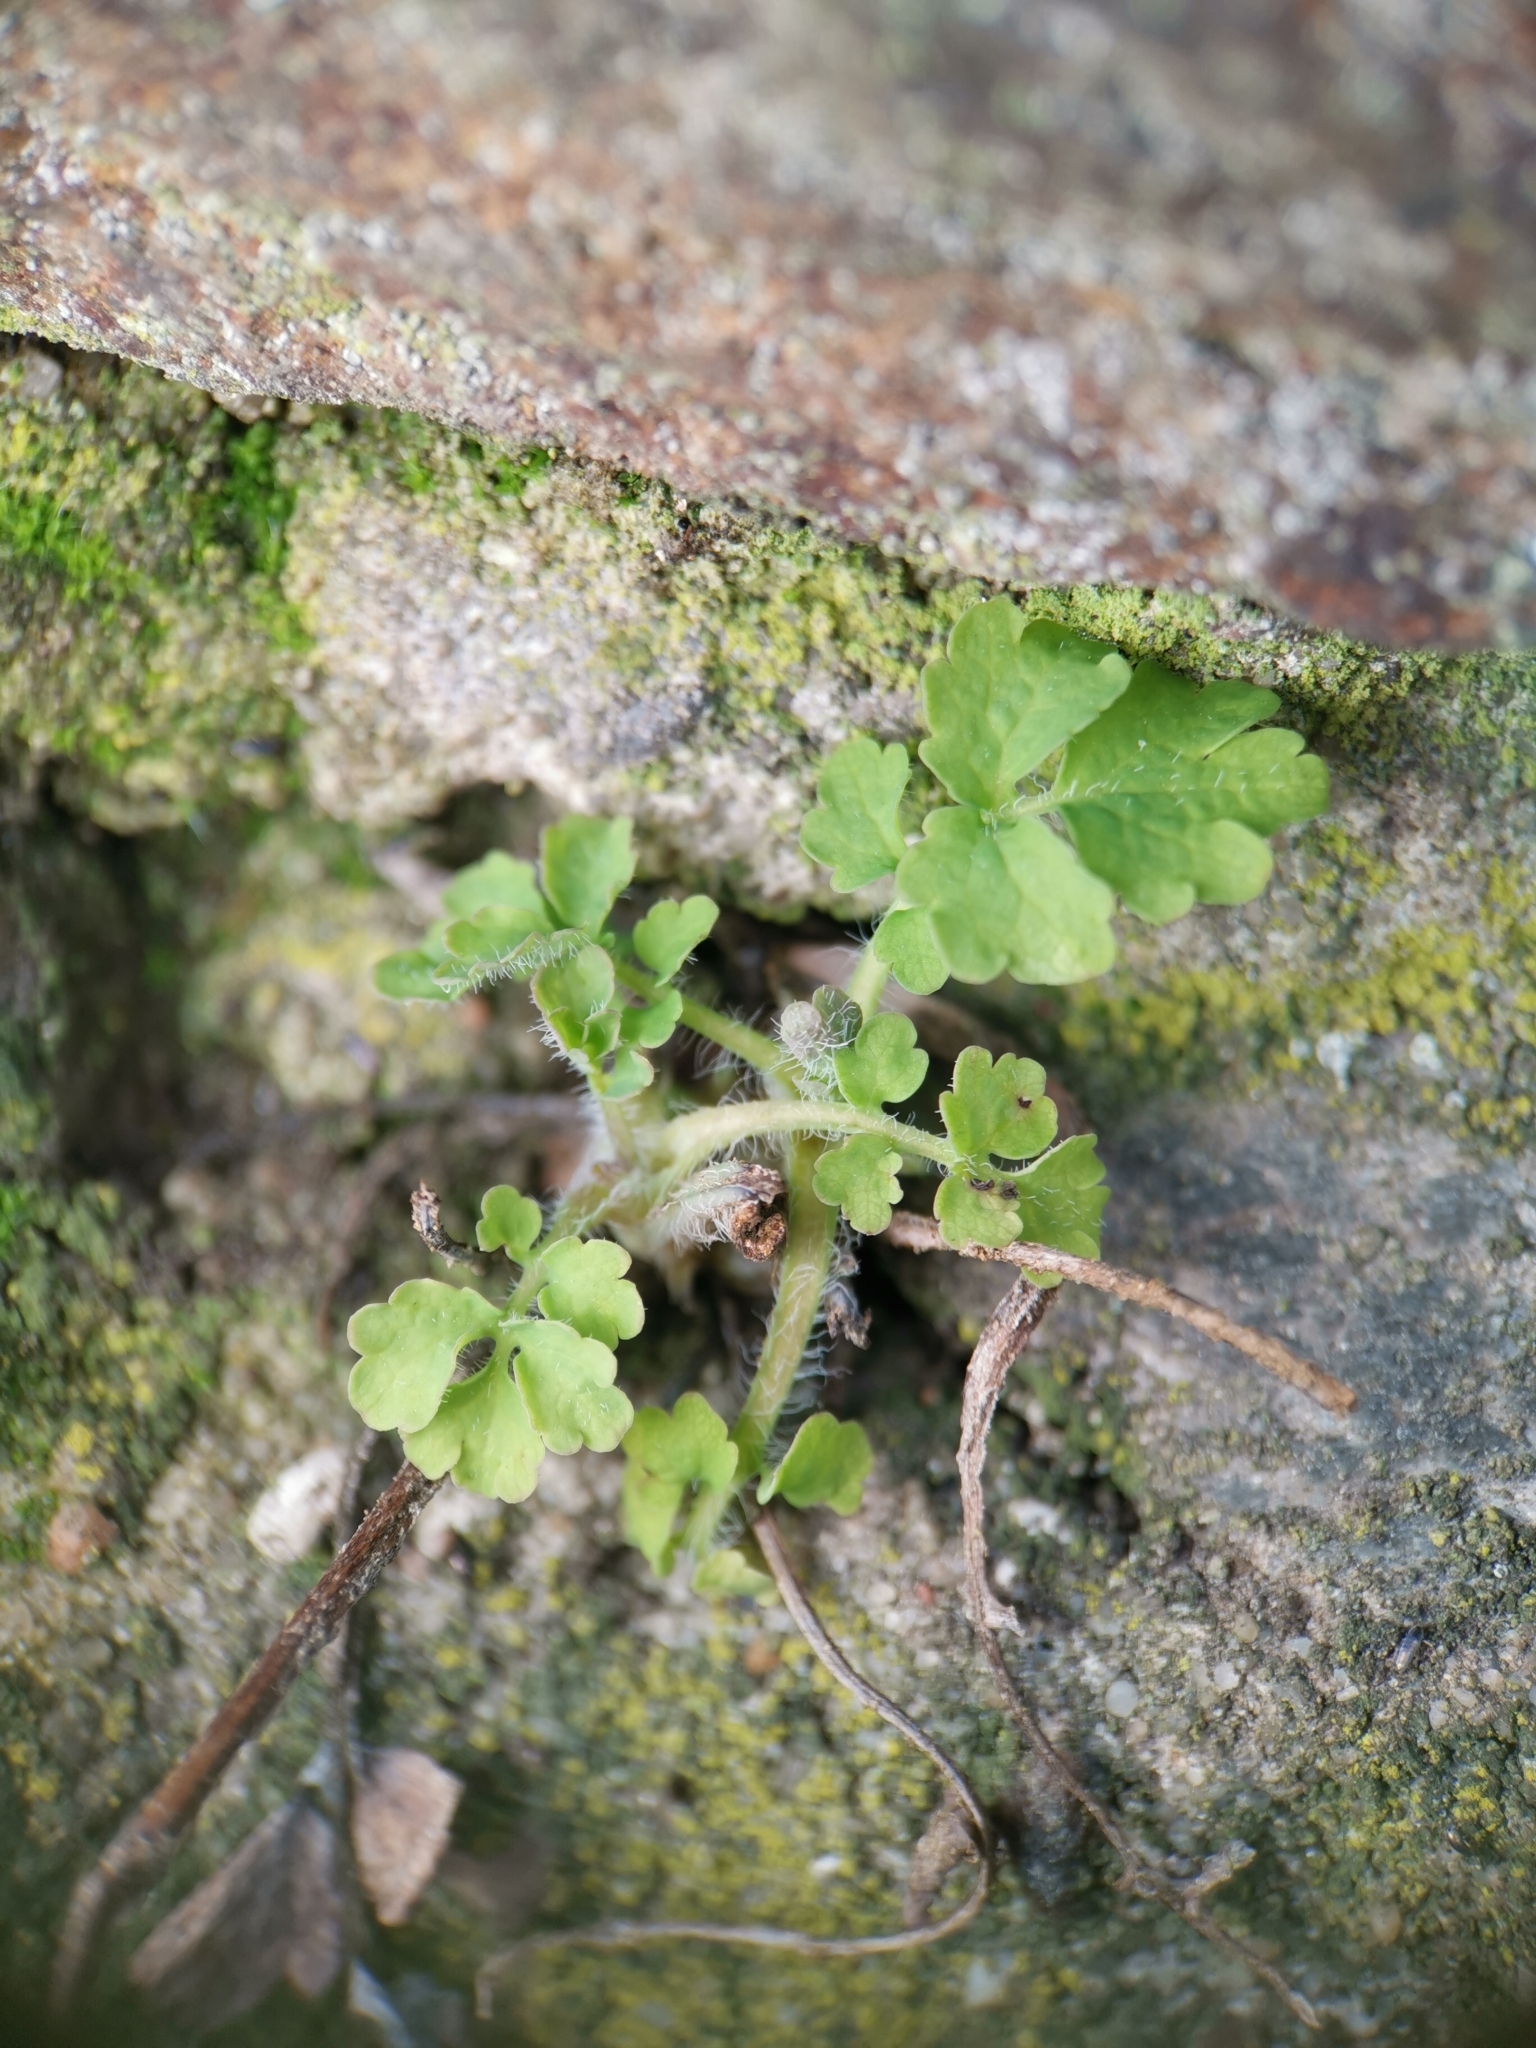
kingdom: Plantae
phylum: Tracheophyta
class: Magnoliopsida
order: Ranunculales
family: Papaveraceae
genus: Chelidonium
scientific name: Chelidonium majus
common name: Greater celandine
